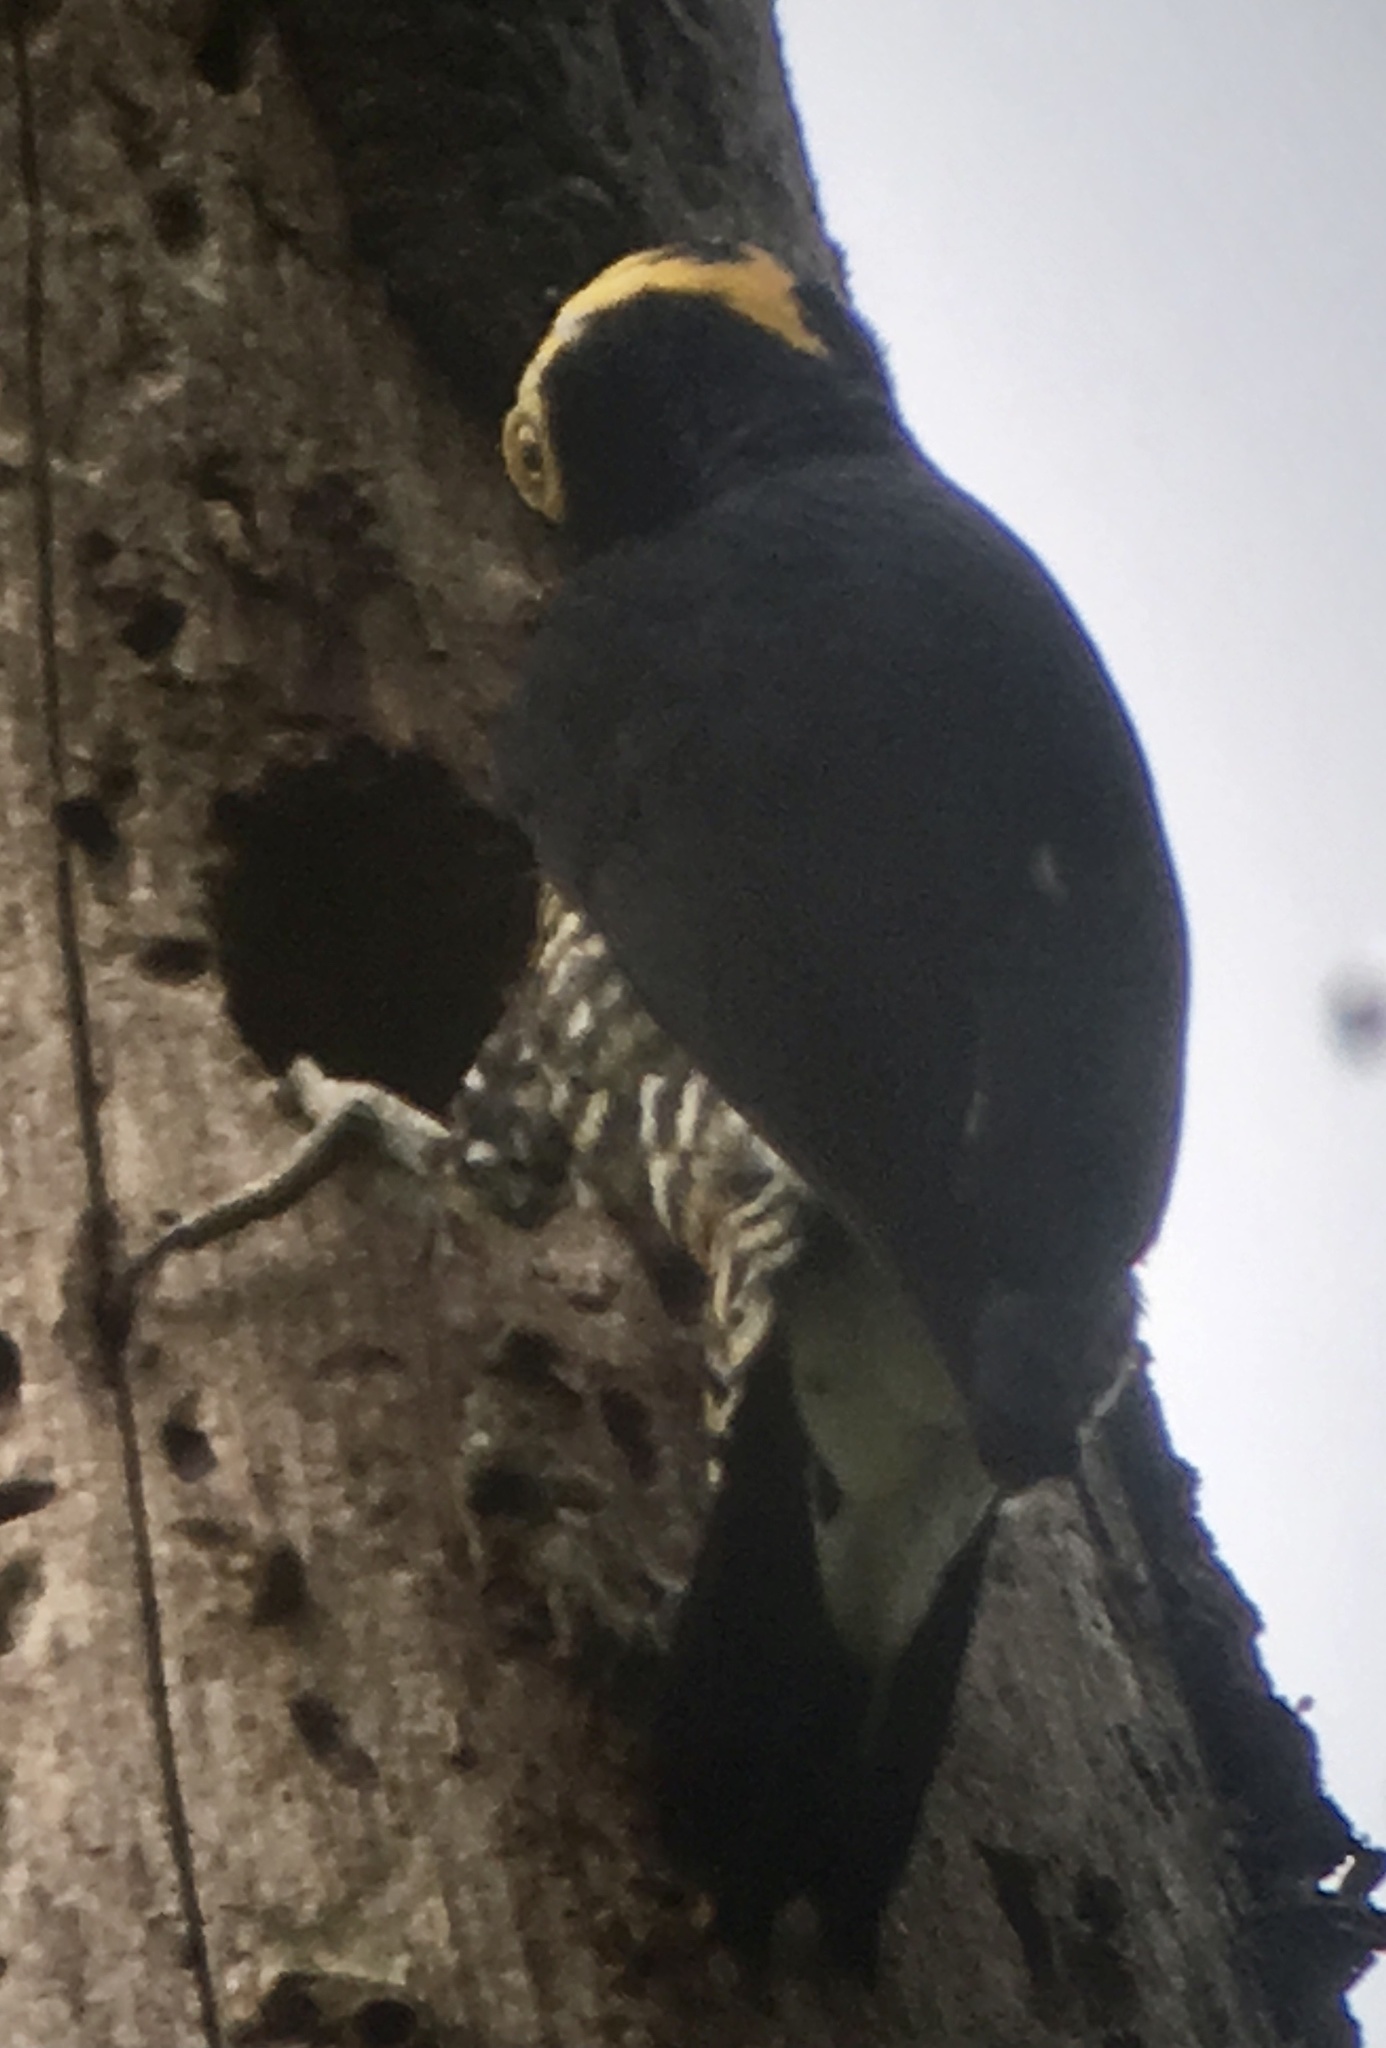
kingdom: Animalia
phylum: Chordata
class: Aves
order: Piciformes
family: Picidae
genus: Melanerpes
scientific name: Melanerpes cruentatus
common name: Yellow-tufted woodpecker
